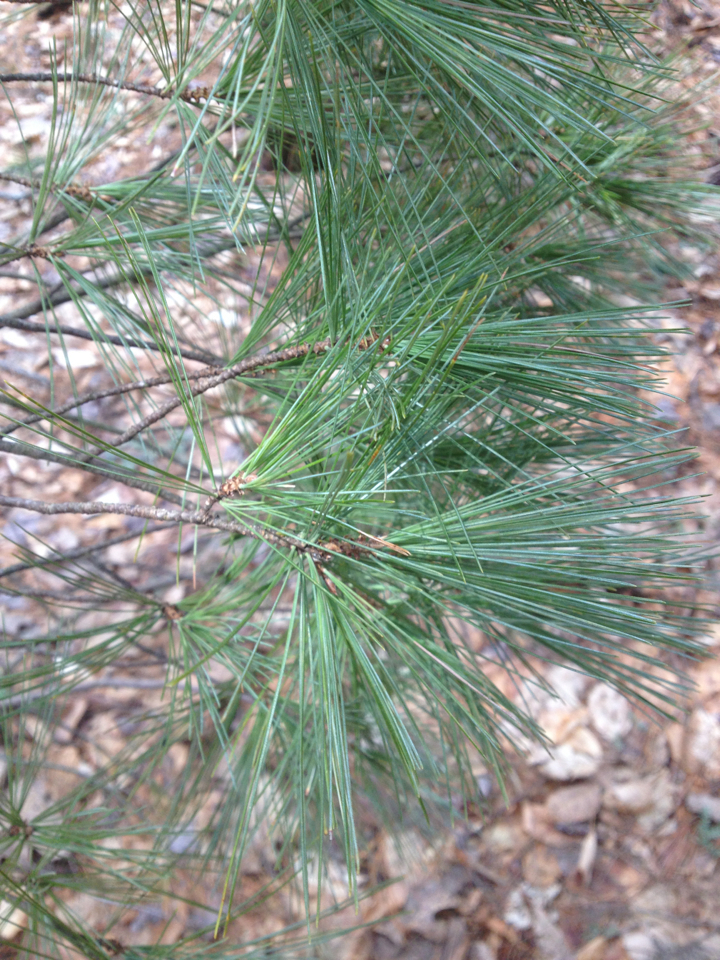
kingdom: Plantae
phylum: Tracheophyta
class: Pinopsida
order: Pinales
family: Pinaceae
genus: Pinus
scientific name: Pinus strobus
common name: Weymouth pine
